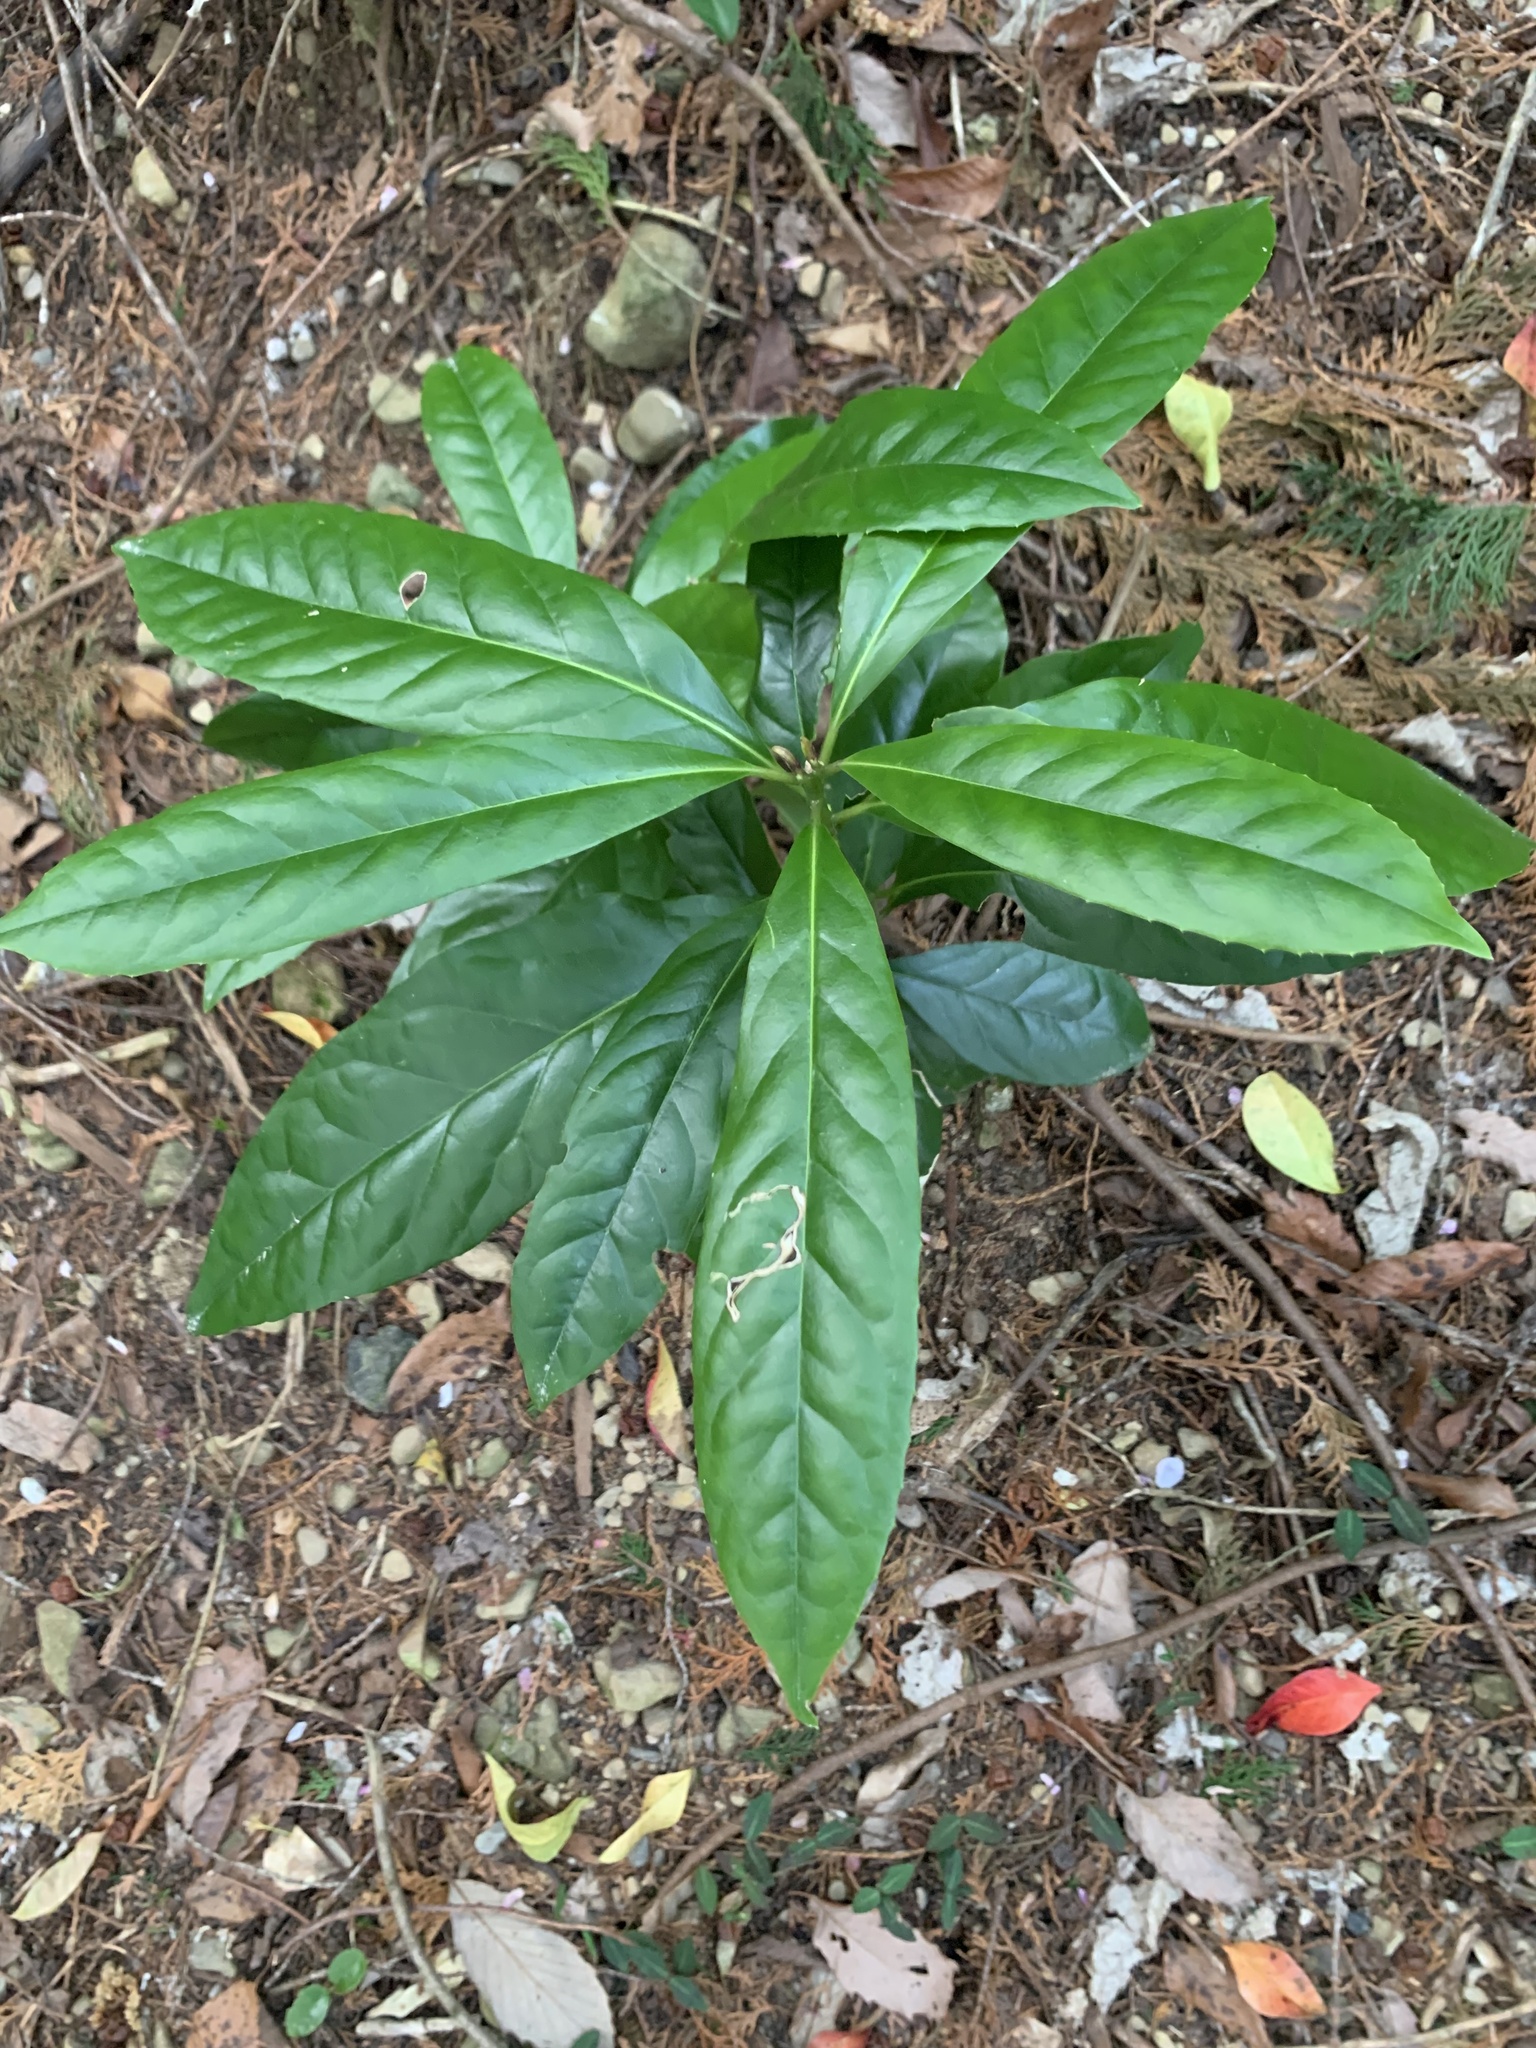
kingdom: Plantae
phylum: Tracheophyta
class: Magnoliopsida
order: Ericales
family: Symplocaceae
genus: Symplocos
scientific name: Symplocos glauca
